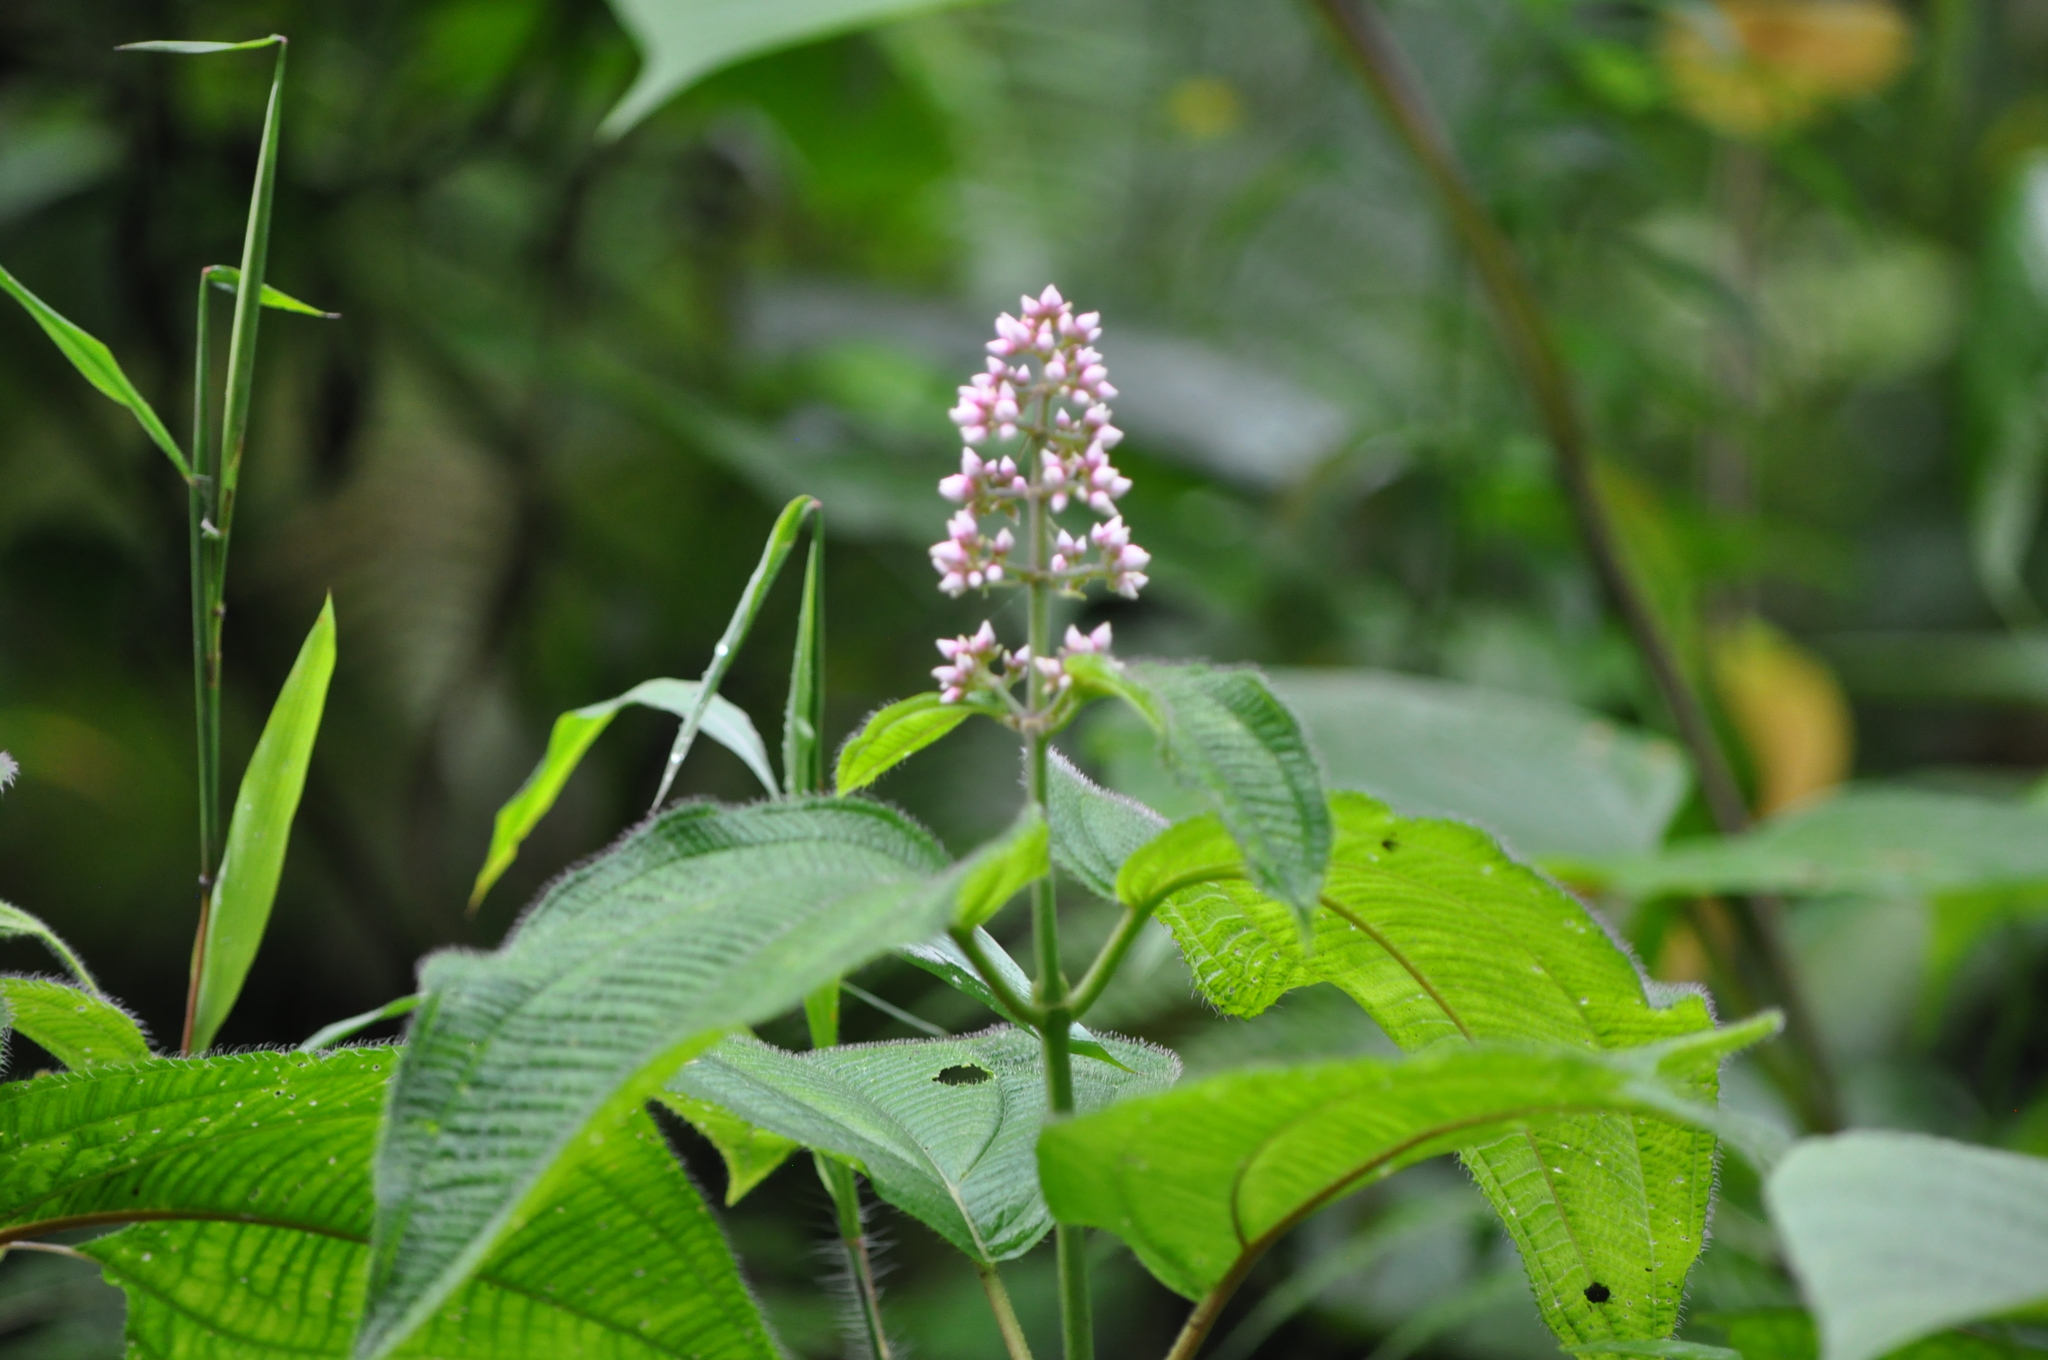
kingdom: Plantae
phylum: Tracheophyta
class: Magnoliopsida
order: Myrtales
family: Melastomataceae
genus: Miconia
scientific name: Miconia subcrustulata
